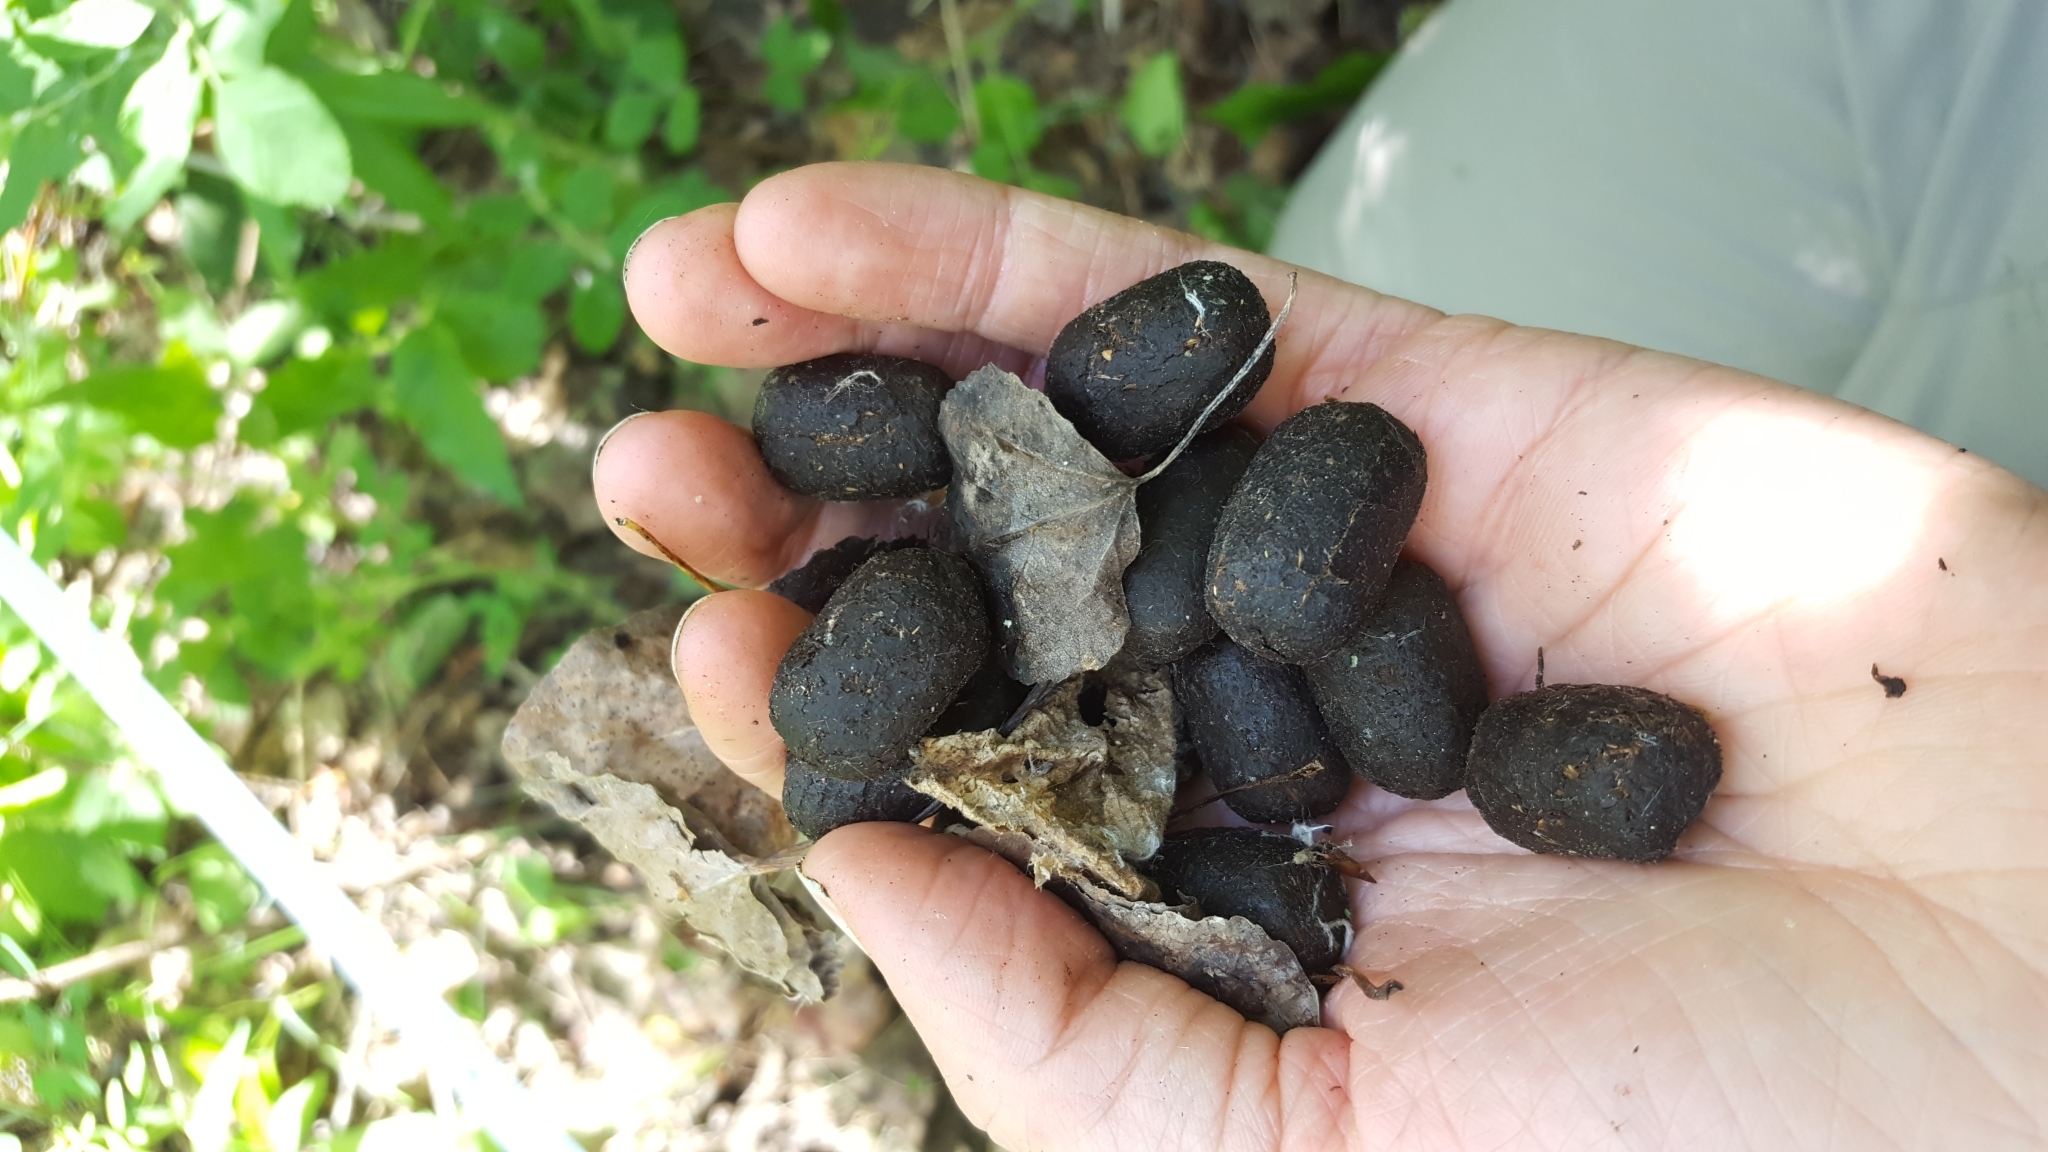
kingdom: Animalia
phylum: Chordata
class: Mammalia
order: Artiodactyla
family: Cervidae
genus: Alces
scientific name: Alces alces
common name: Moose
